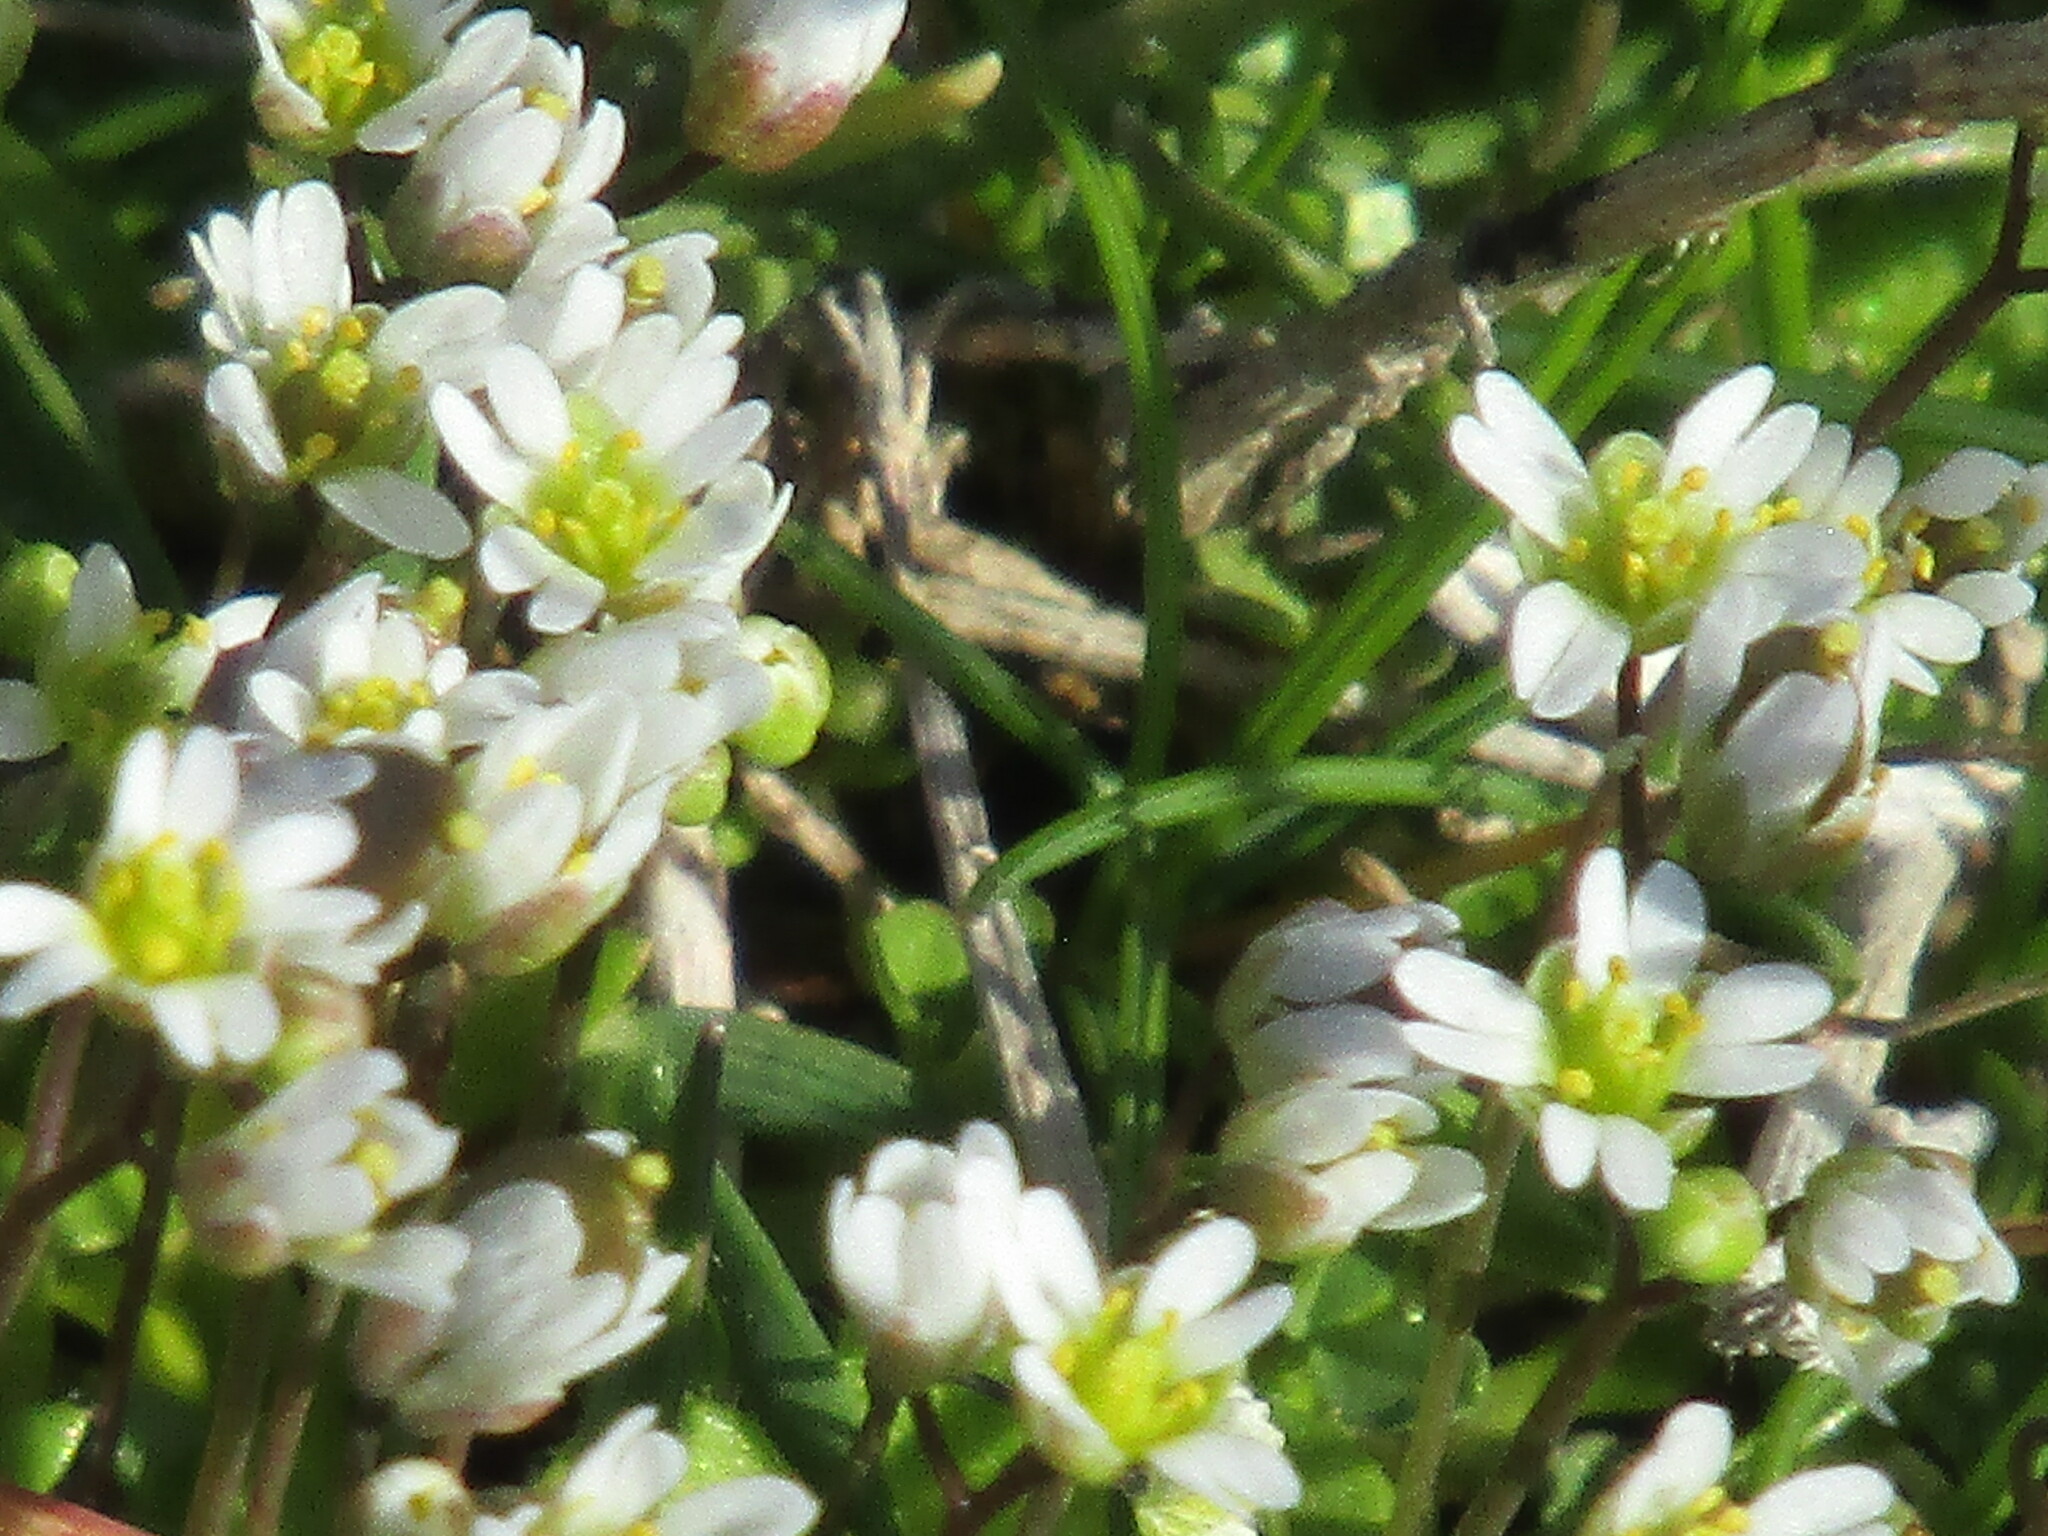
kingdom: Plantae
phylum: Tracheophyta
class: Magnoliopsida
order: Brassicales
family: Brassicaceae
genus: Draba
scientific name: Draba verna
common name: Spring draba
